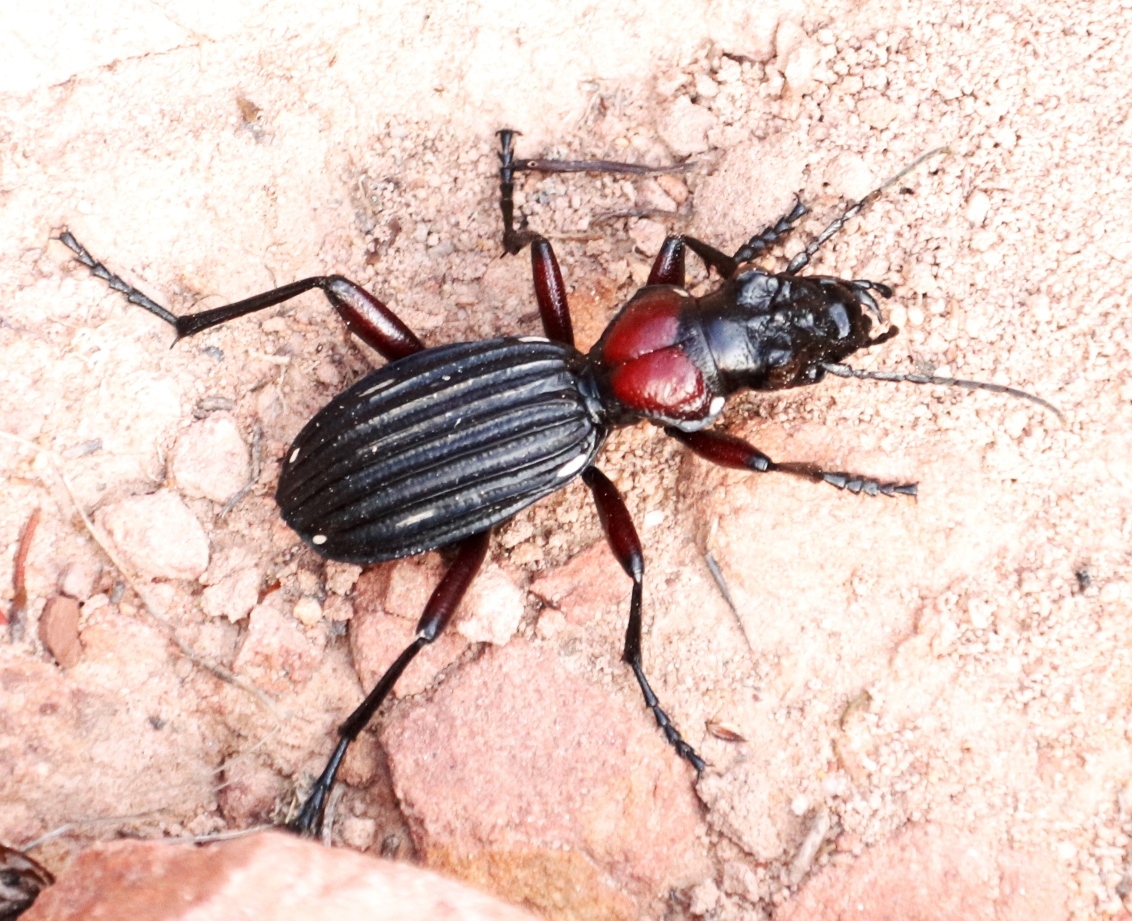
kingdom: Animalia
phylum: Arthropoda
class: Insecta
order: Coleoptera
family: Carabidae
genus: Anthia
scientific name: Anthia decemguttata
